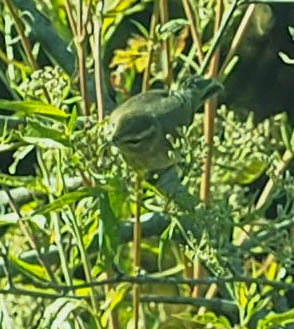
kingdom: Animalia
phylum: Chordata
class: Aves
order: Passeriformes
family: Parulidae
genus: Setophaga
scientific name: Setophaga palmarum
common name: Palm warbler
